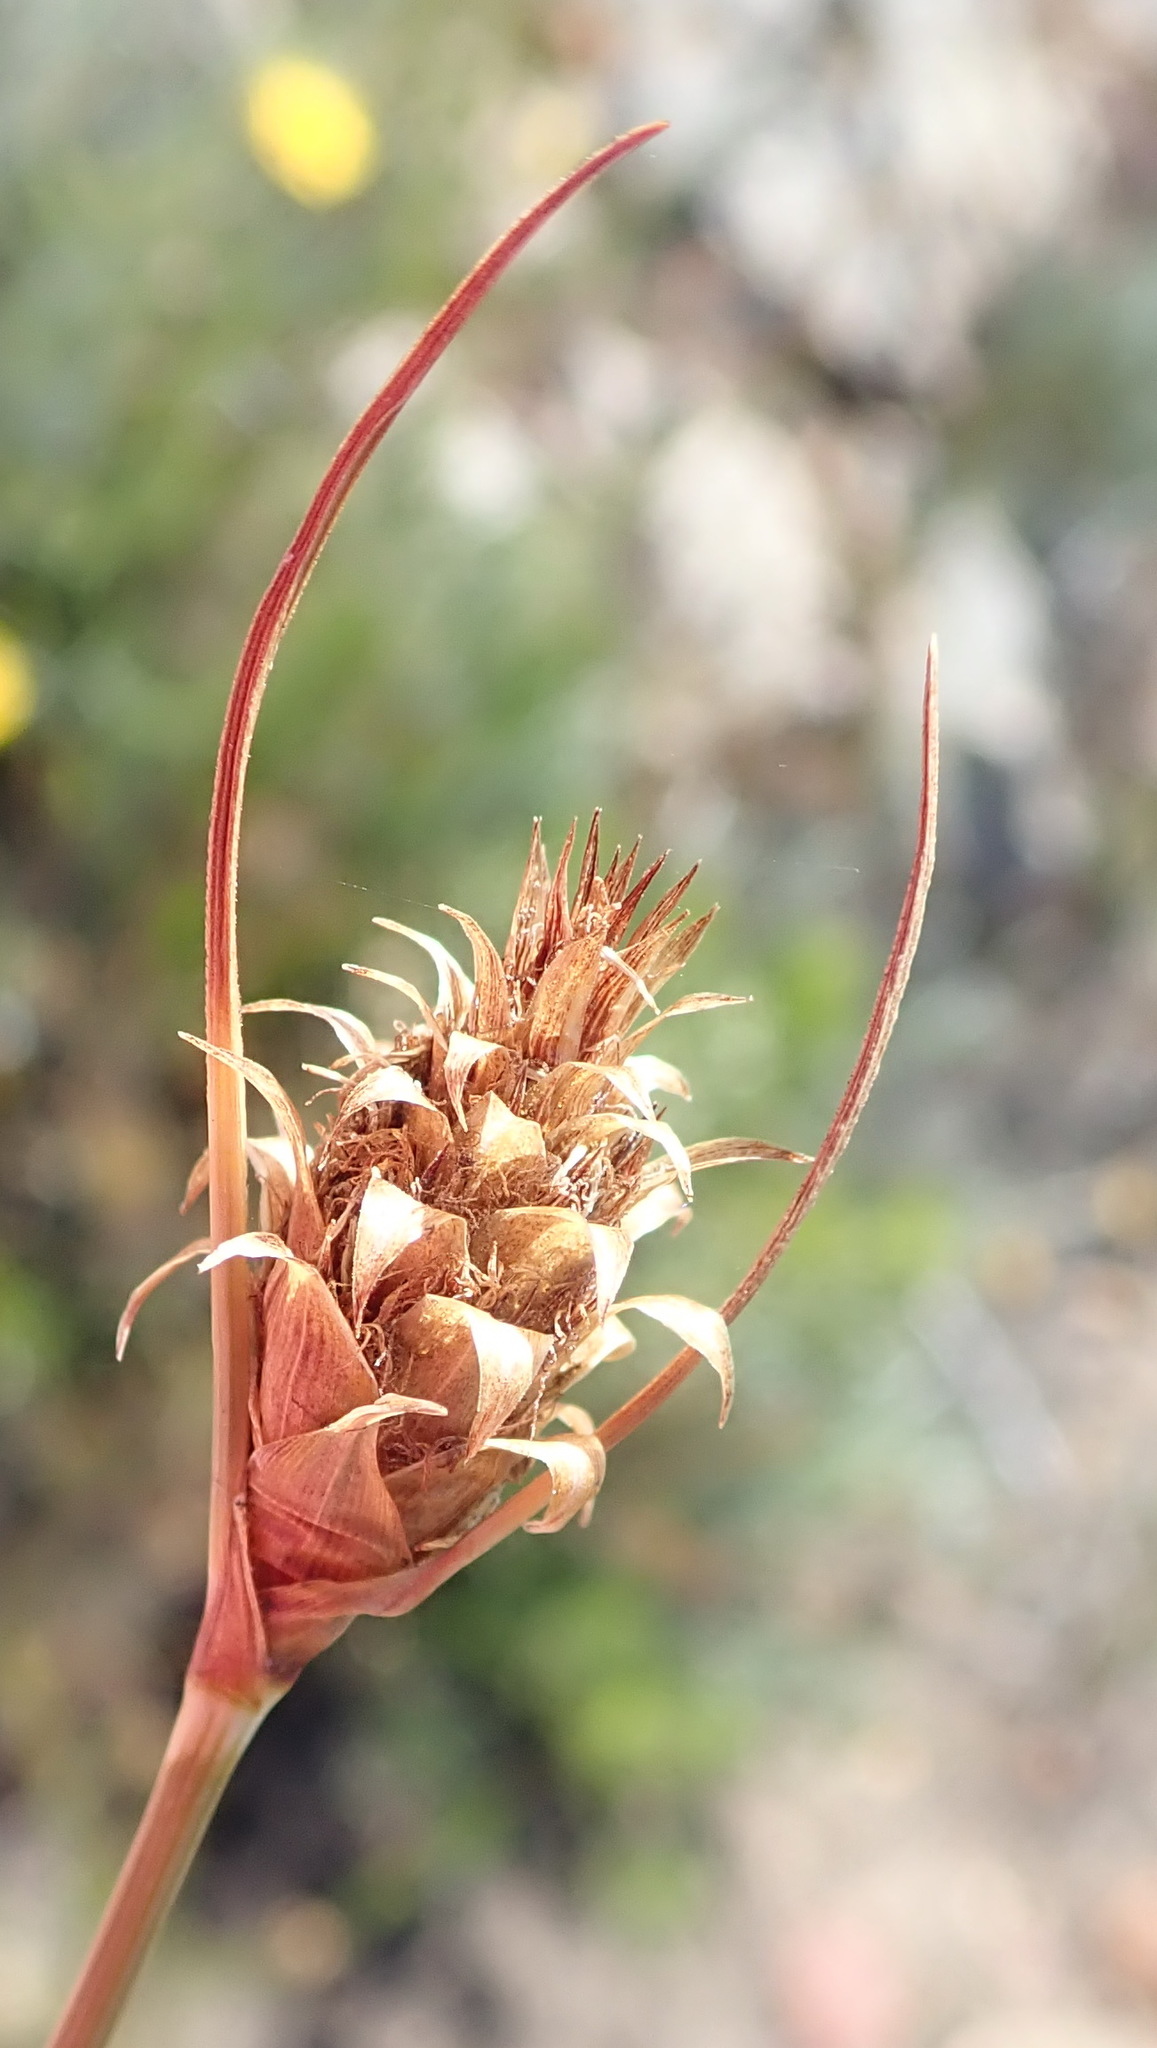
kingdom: Plantae
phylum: Tracheophyta
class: Liliopsida
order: Poales
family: Cyperaceae
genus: Ficinia
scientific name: Ficinia nigrescens
